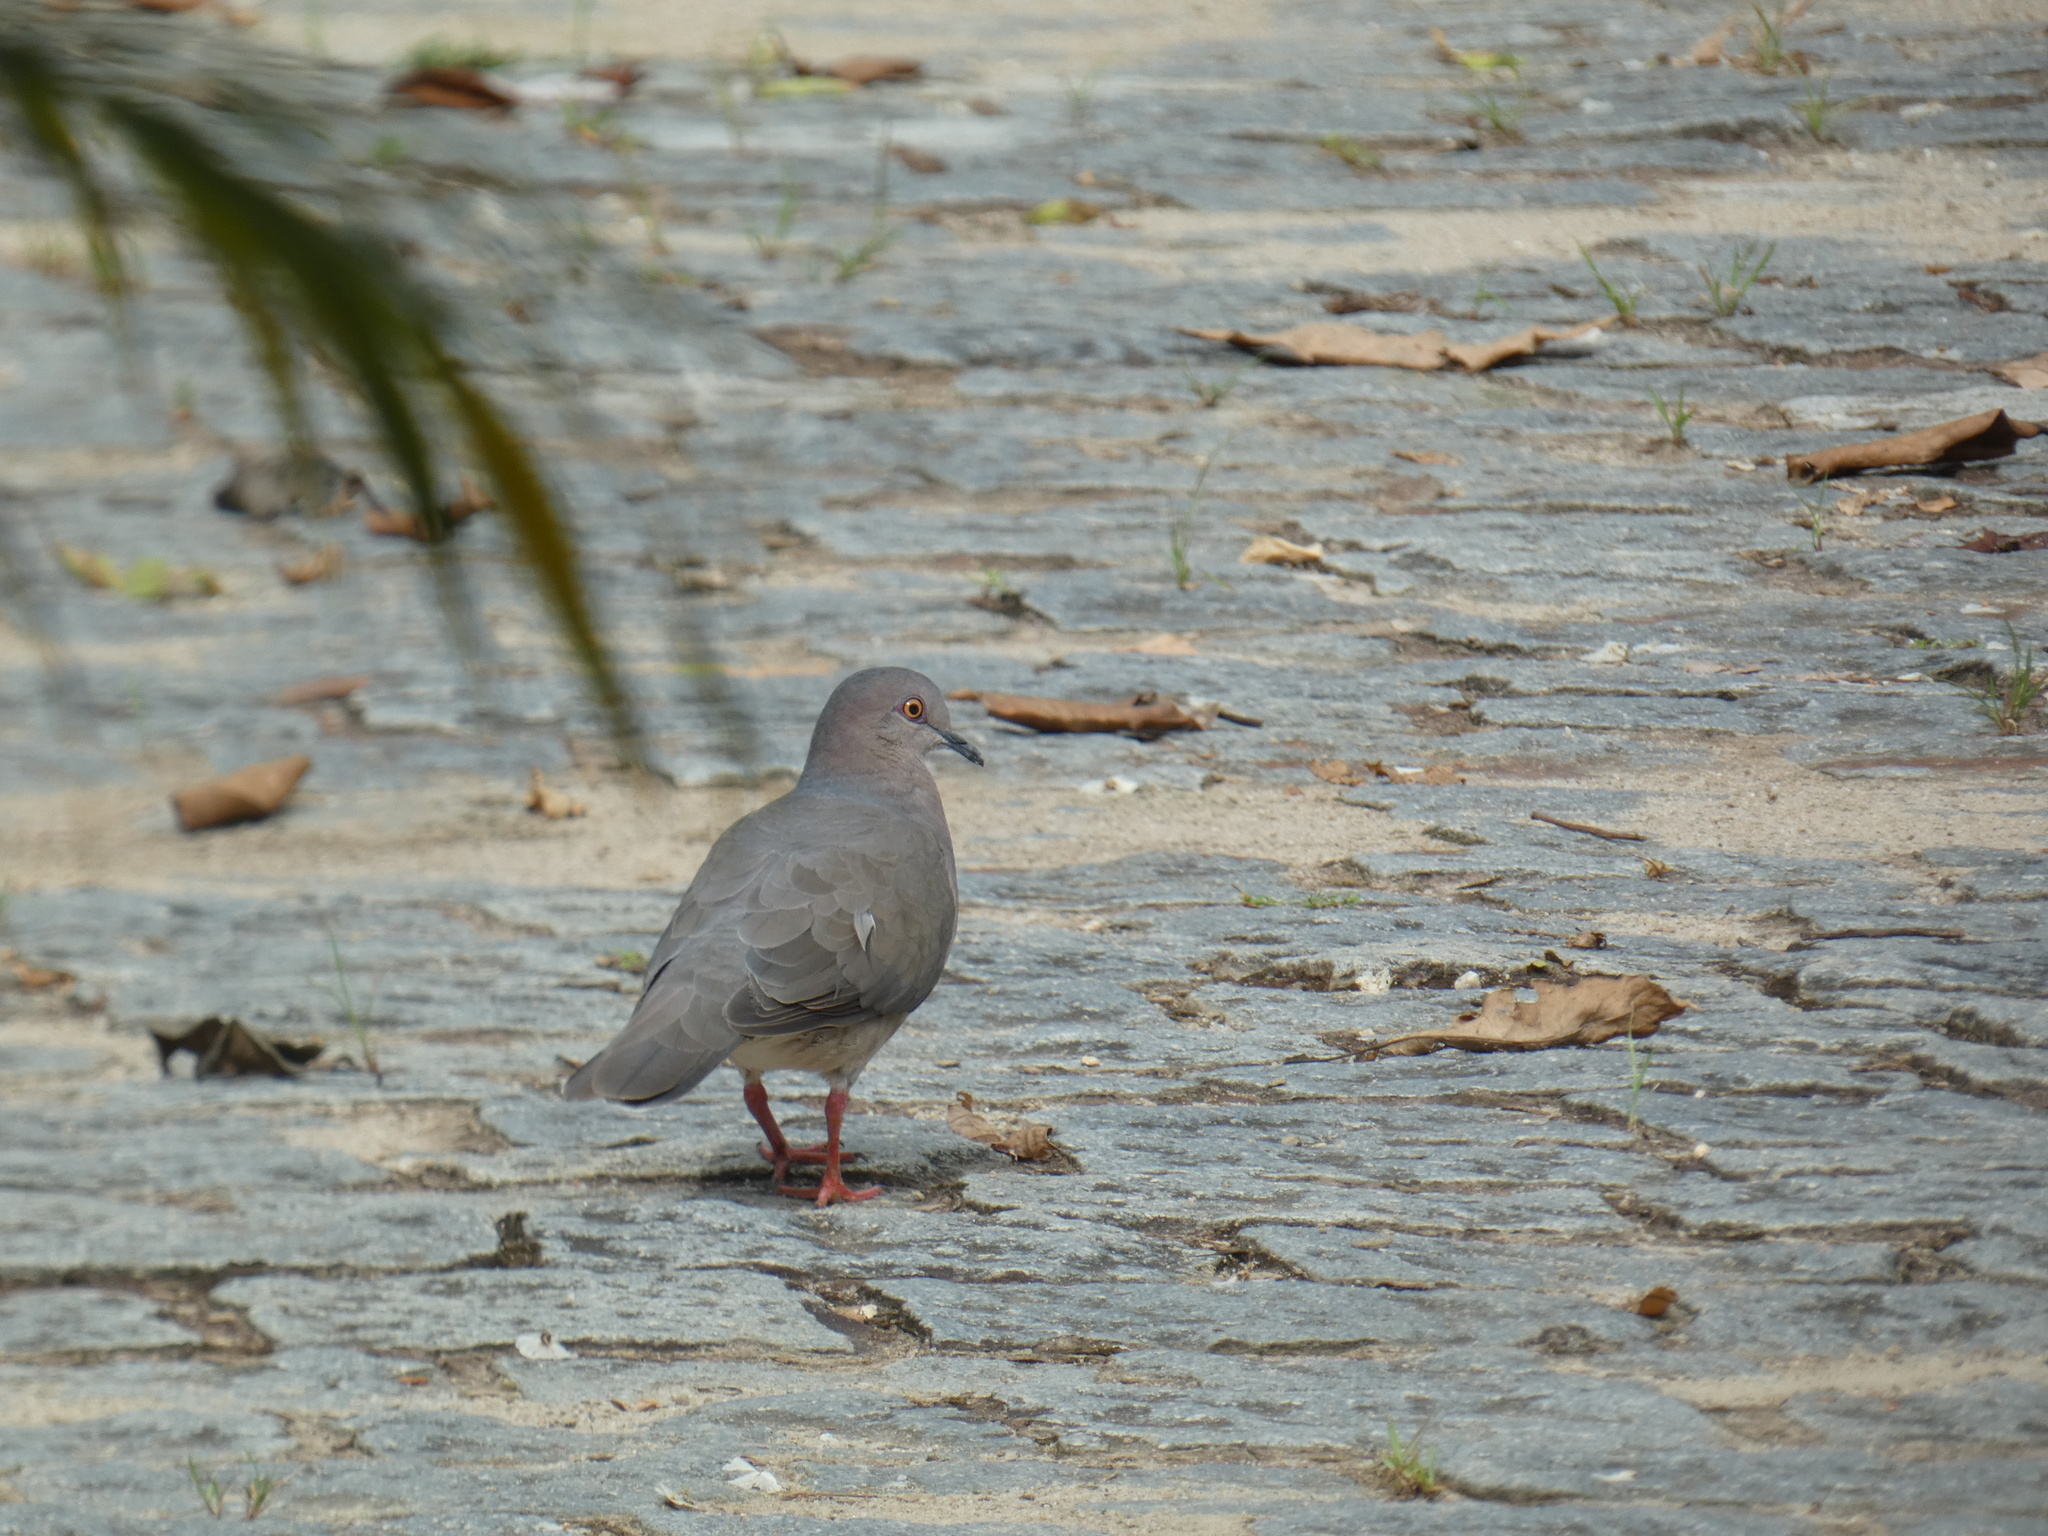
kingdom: Animalia
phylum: Chordata
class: Aves
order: Columbiformes
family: Columbidae
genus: Leptotila
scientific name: Leptotila verreauxi
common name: White-tipped dove
